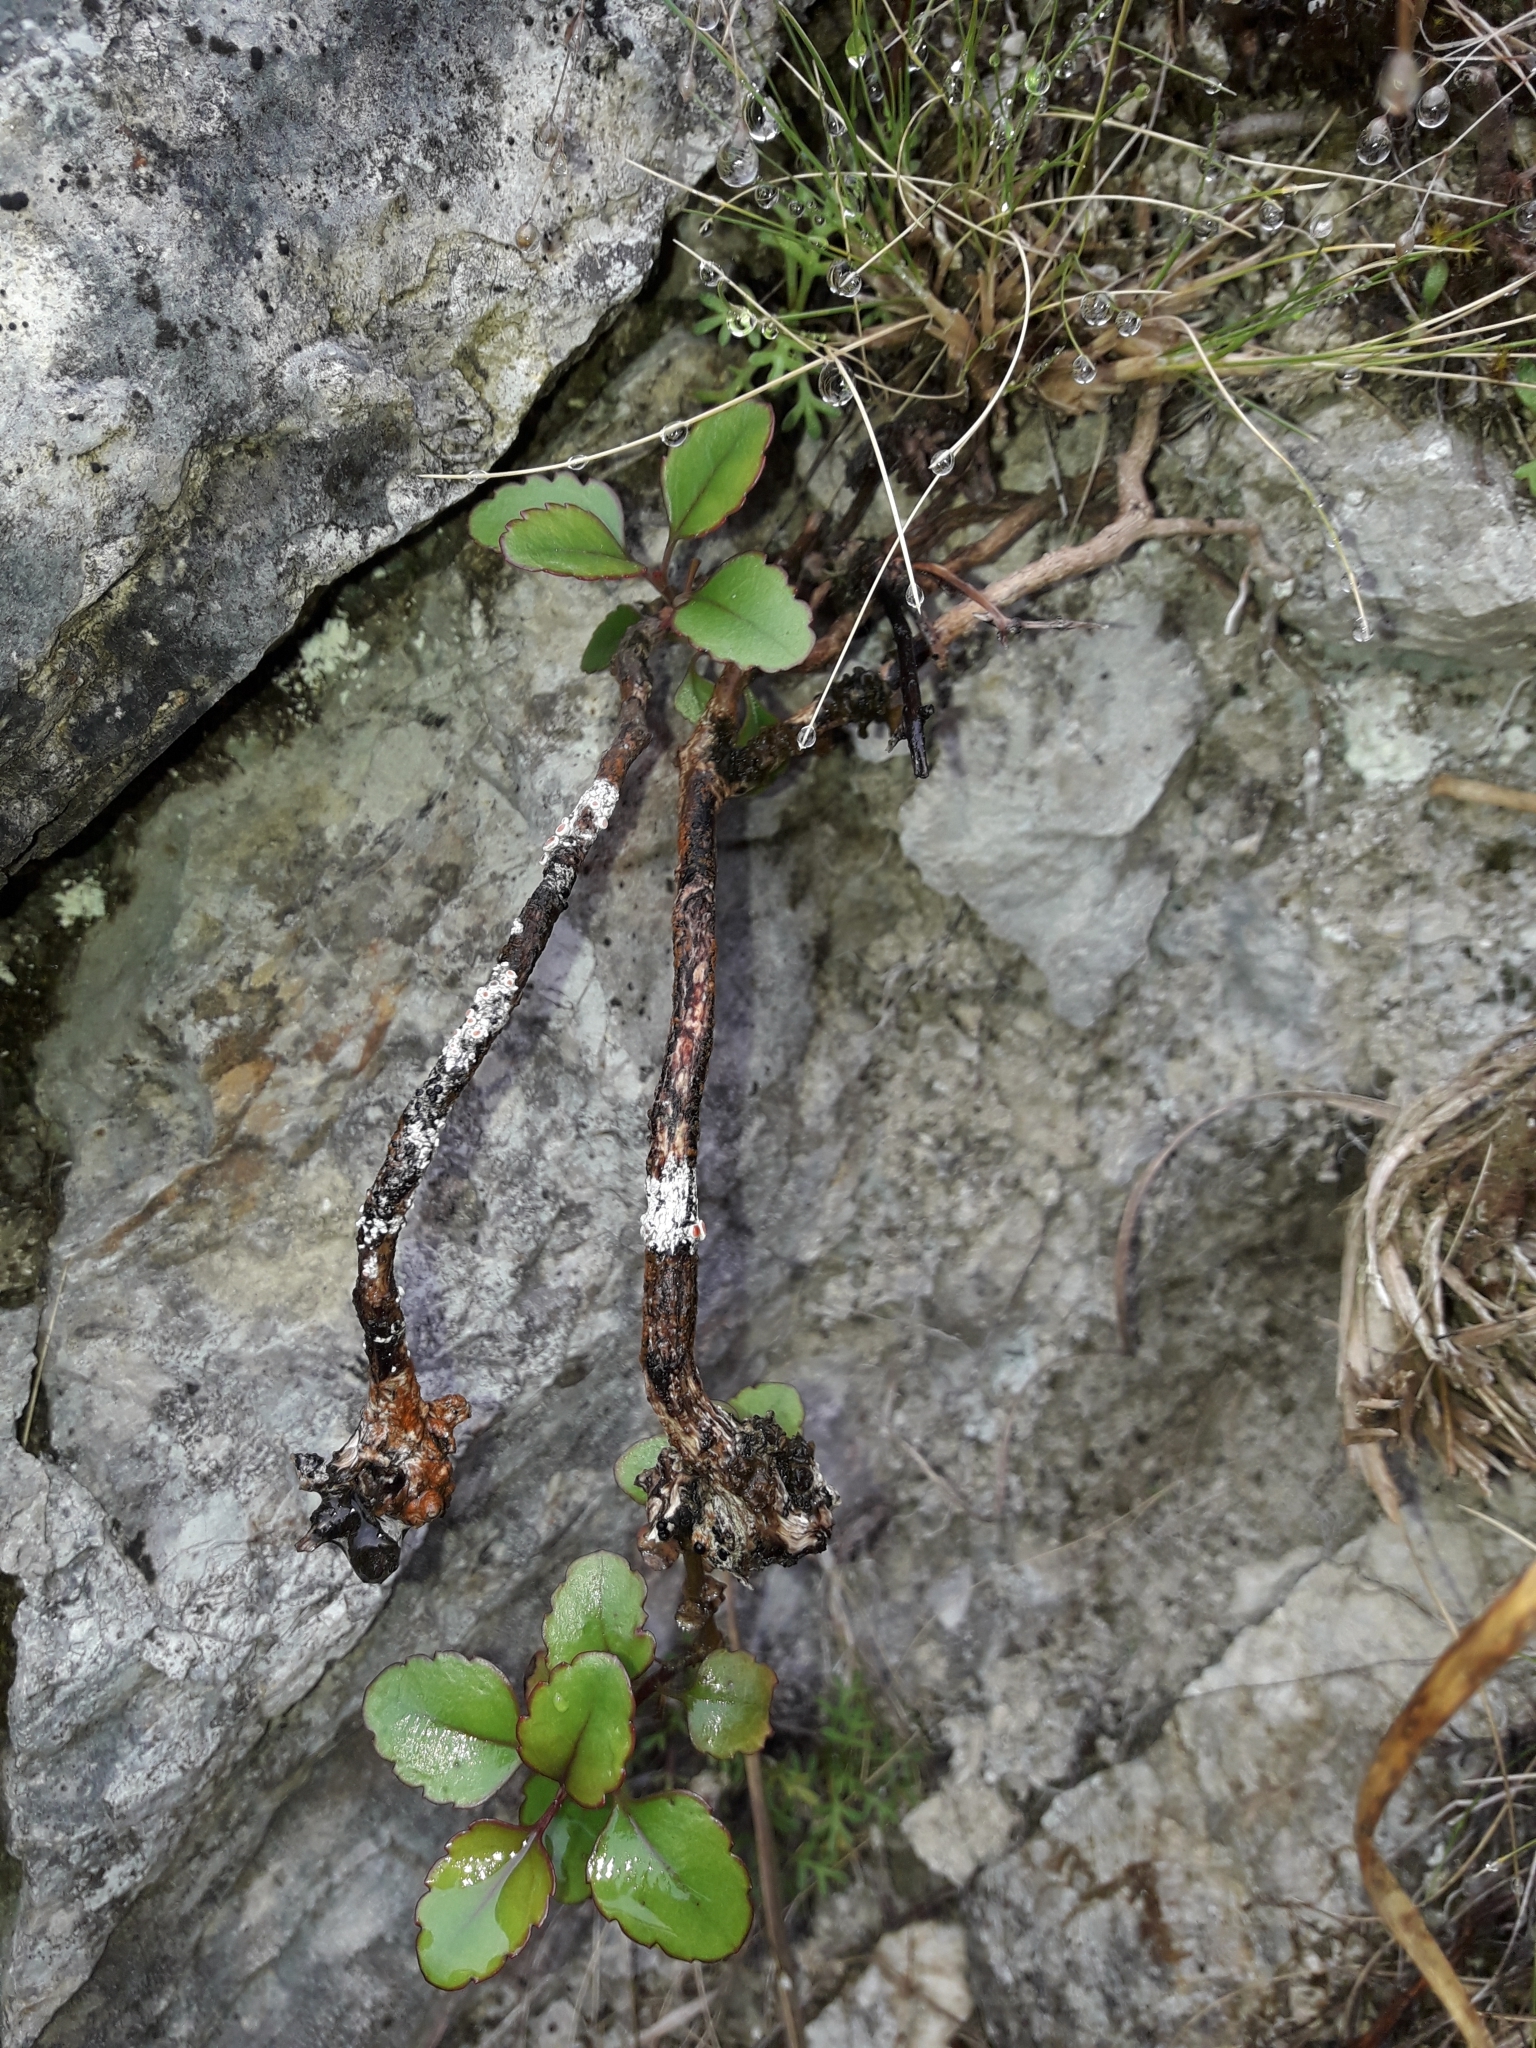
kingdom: Plantae
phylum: Tracheophyta
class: Magnoliopsida
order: Lamiales
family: Plantaginaceae
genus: Veronica
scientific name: Veronica hulkeana
